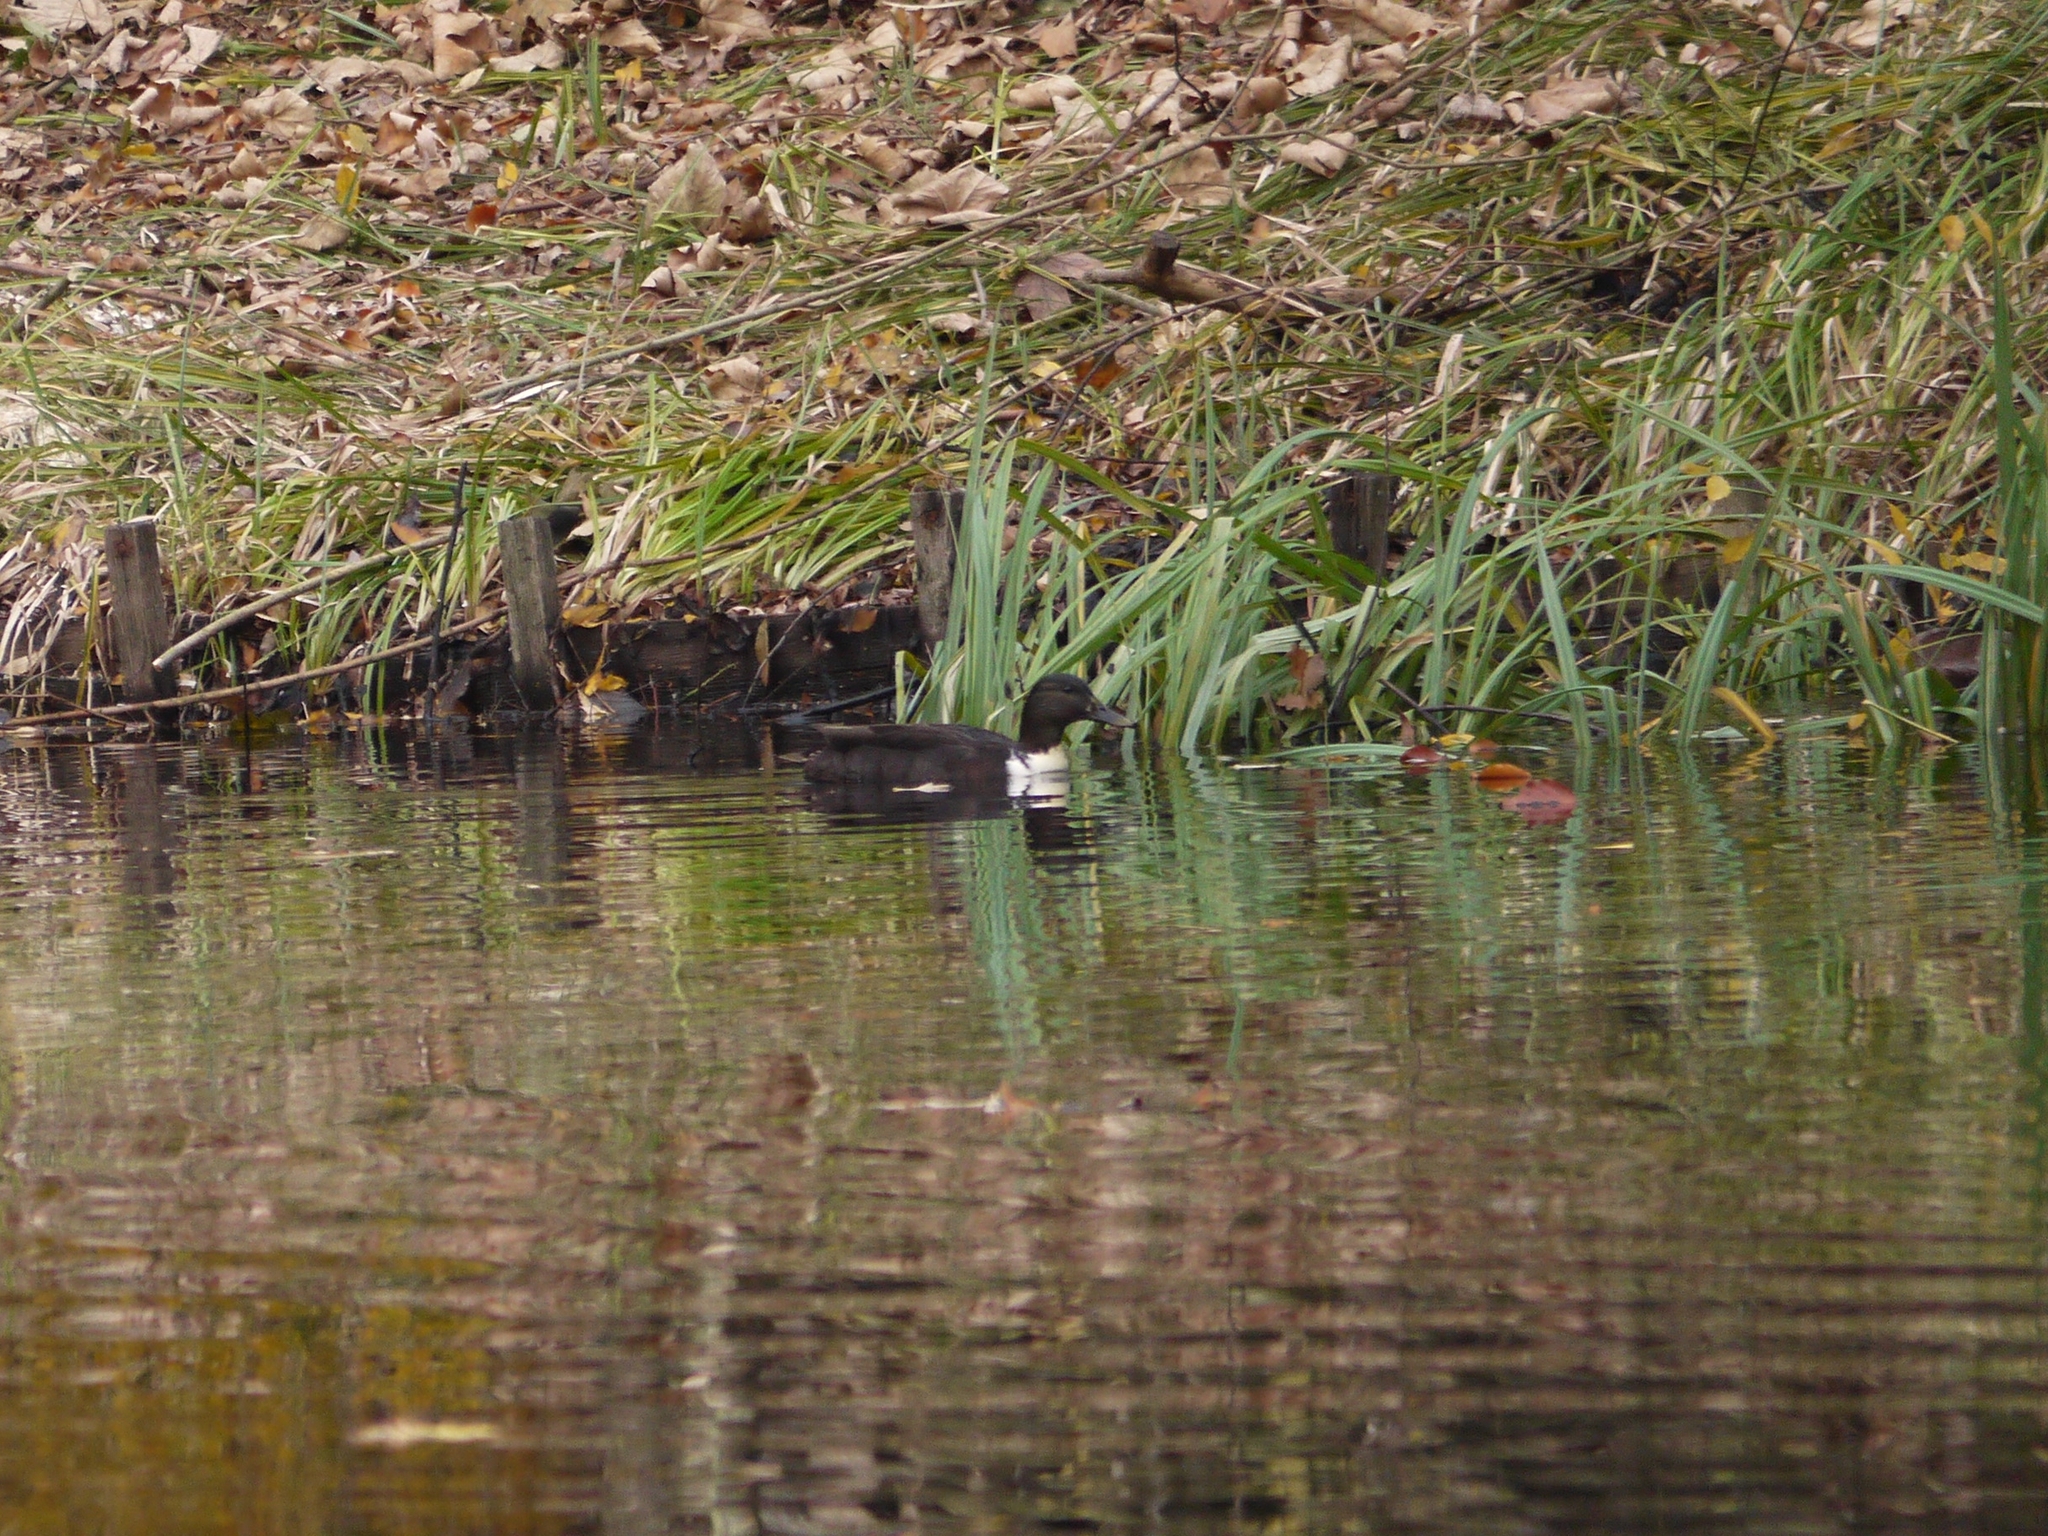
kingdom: Animalia
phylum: Chordata
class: Aves
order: Anseriformes
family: Anatidae
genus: Anas
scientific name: Anas platyrhynchos
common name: Mallard
